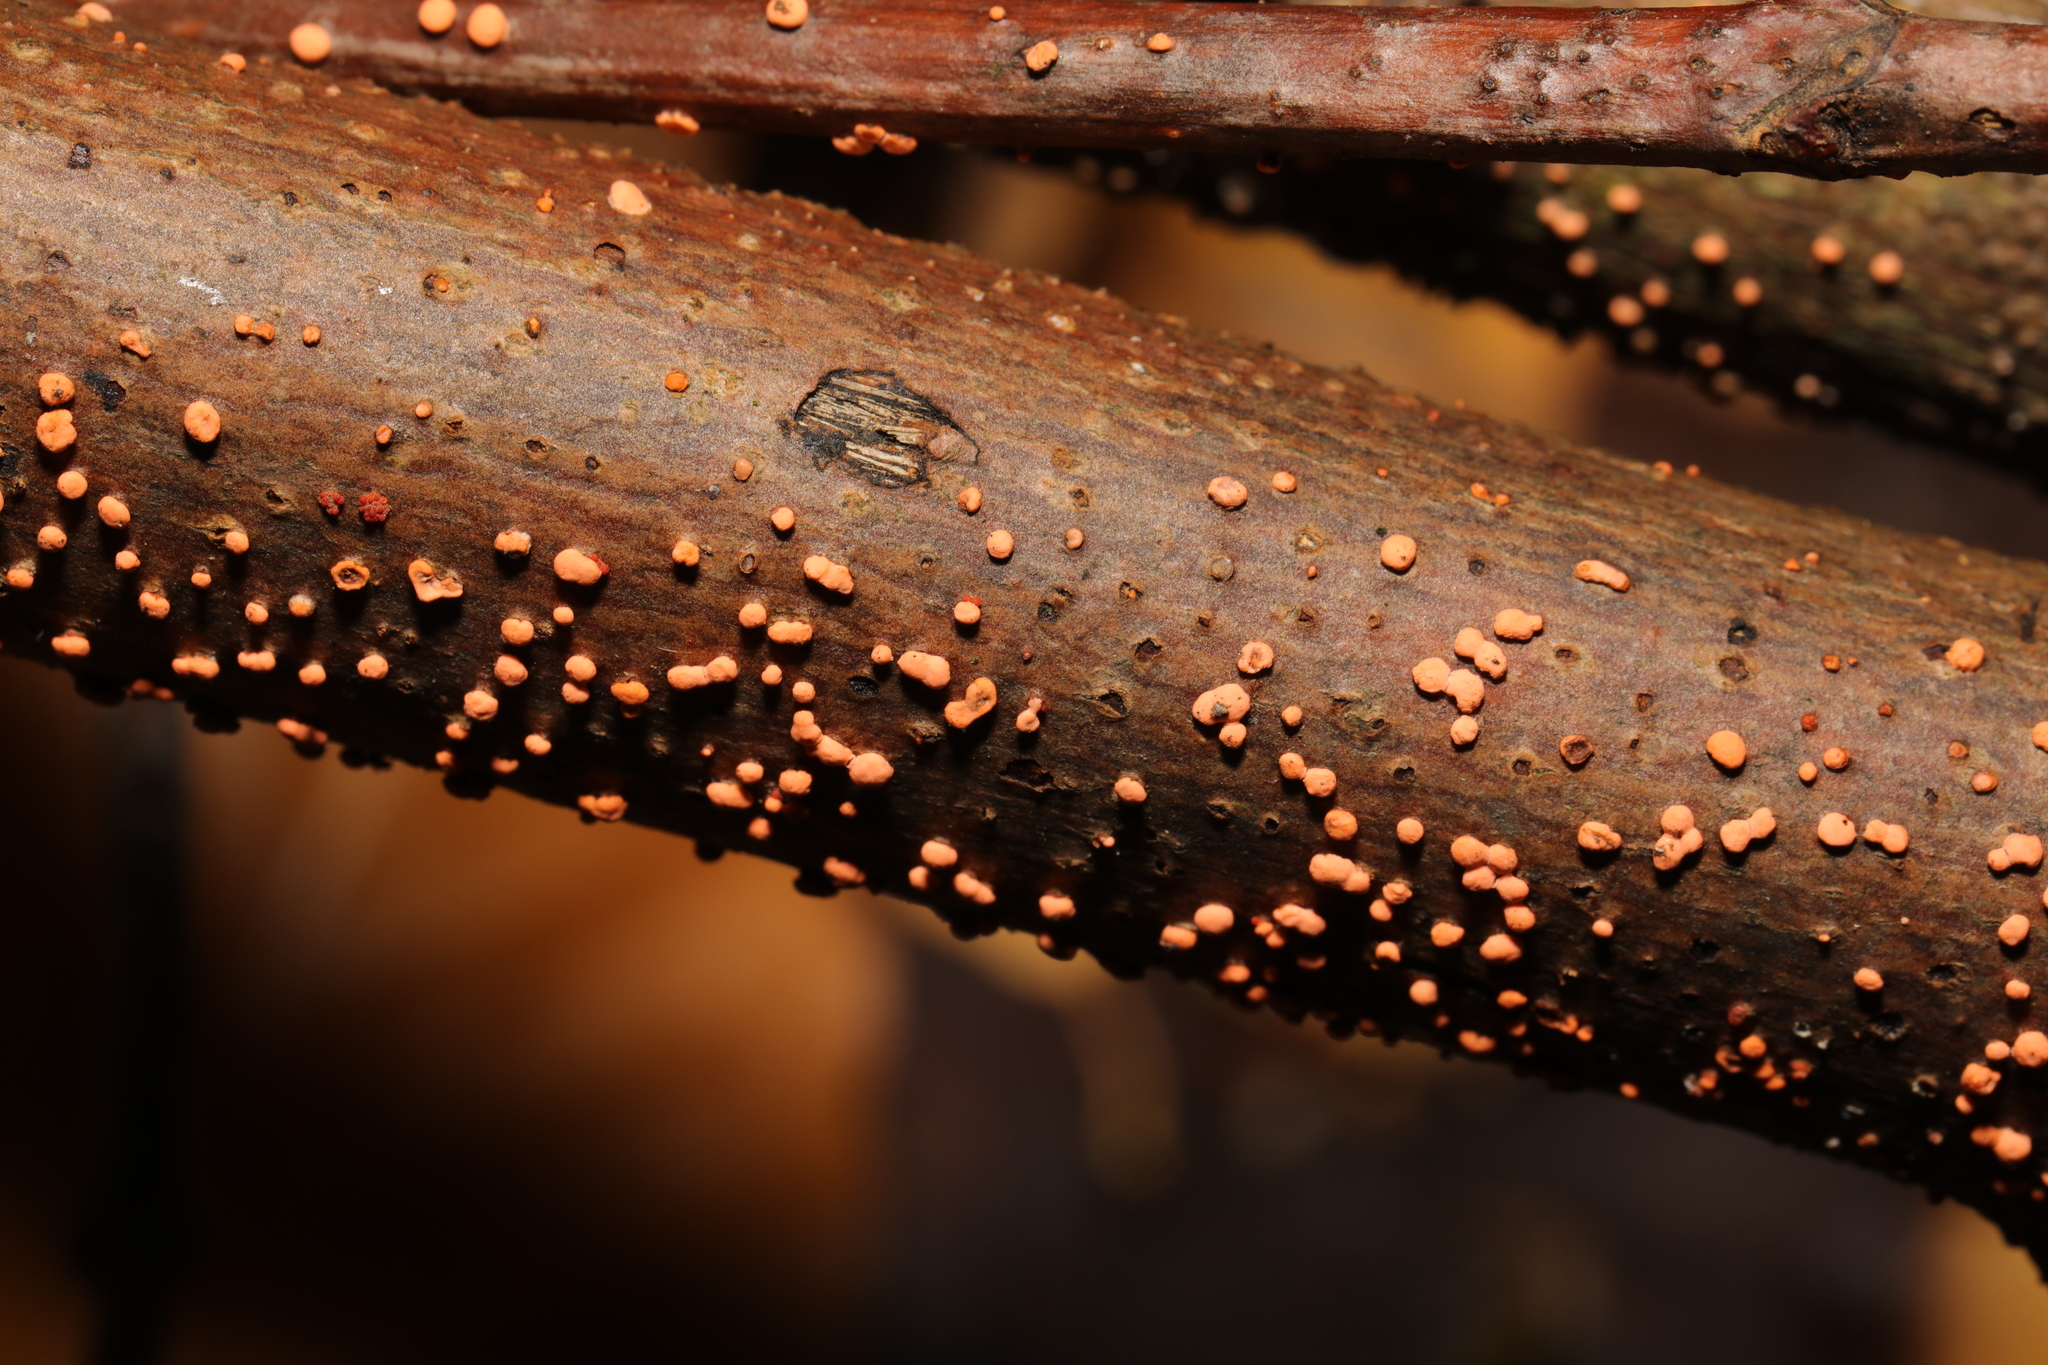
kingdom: Fungi
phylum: Ascomycota
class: Sordariomycetes
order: Hypocreales
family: Nectriaceae
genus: Nectria
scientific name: Nectria cinnabarina
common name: Coral spot
